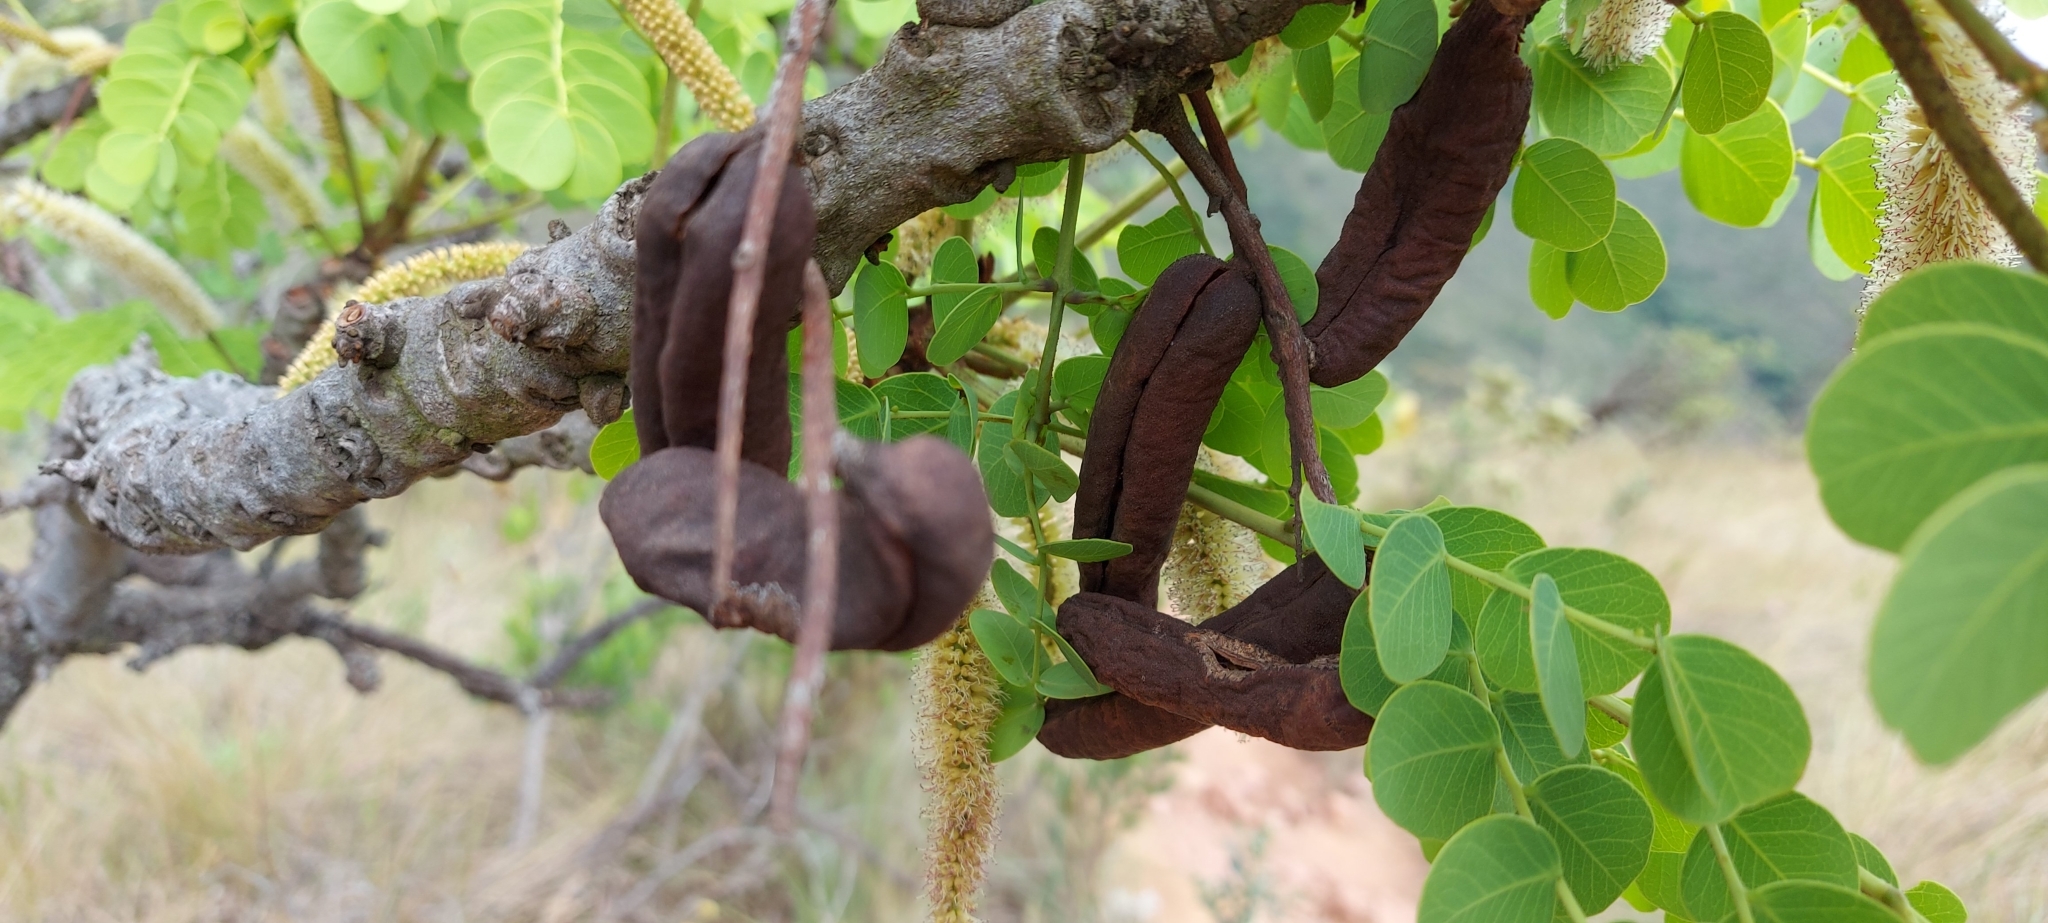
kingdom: Plantae
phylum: Tracheophyta
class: Magnoliopsida
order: Fabales
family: Fabaceae
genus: Stryphnodendron
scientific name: Stryphnodendron adstringens
